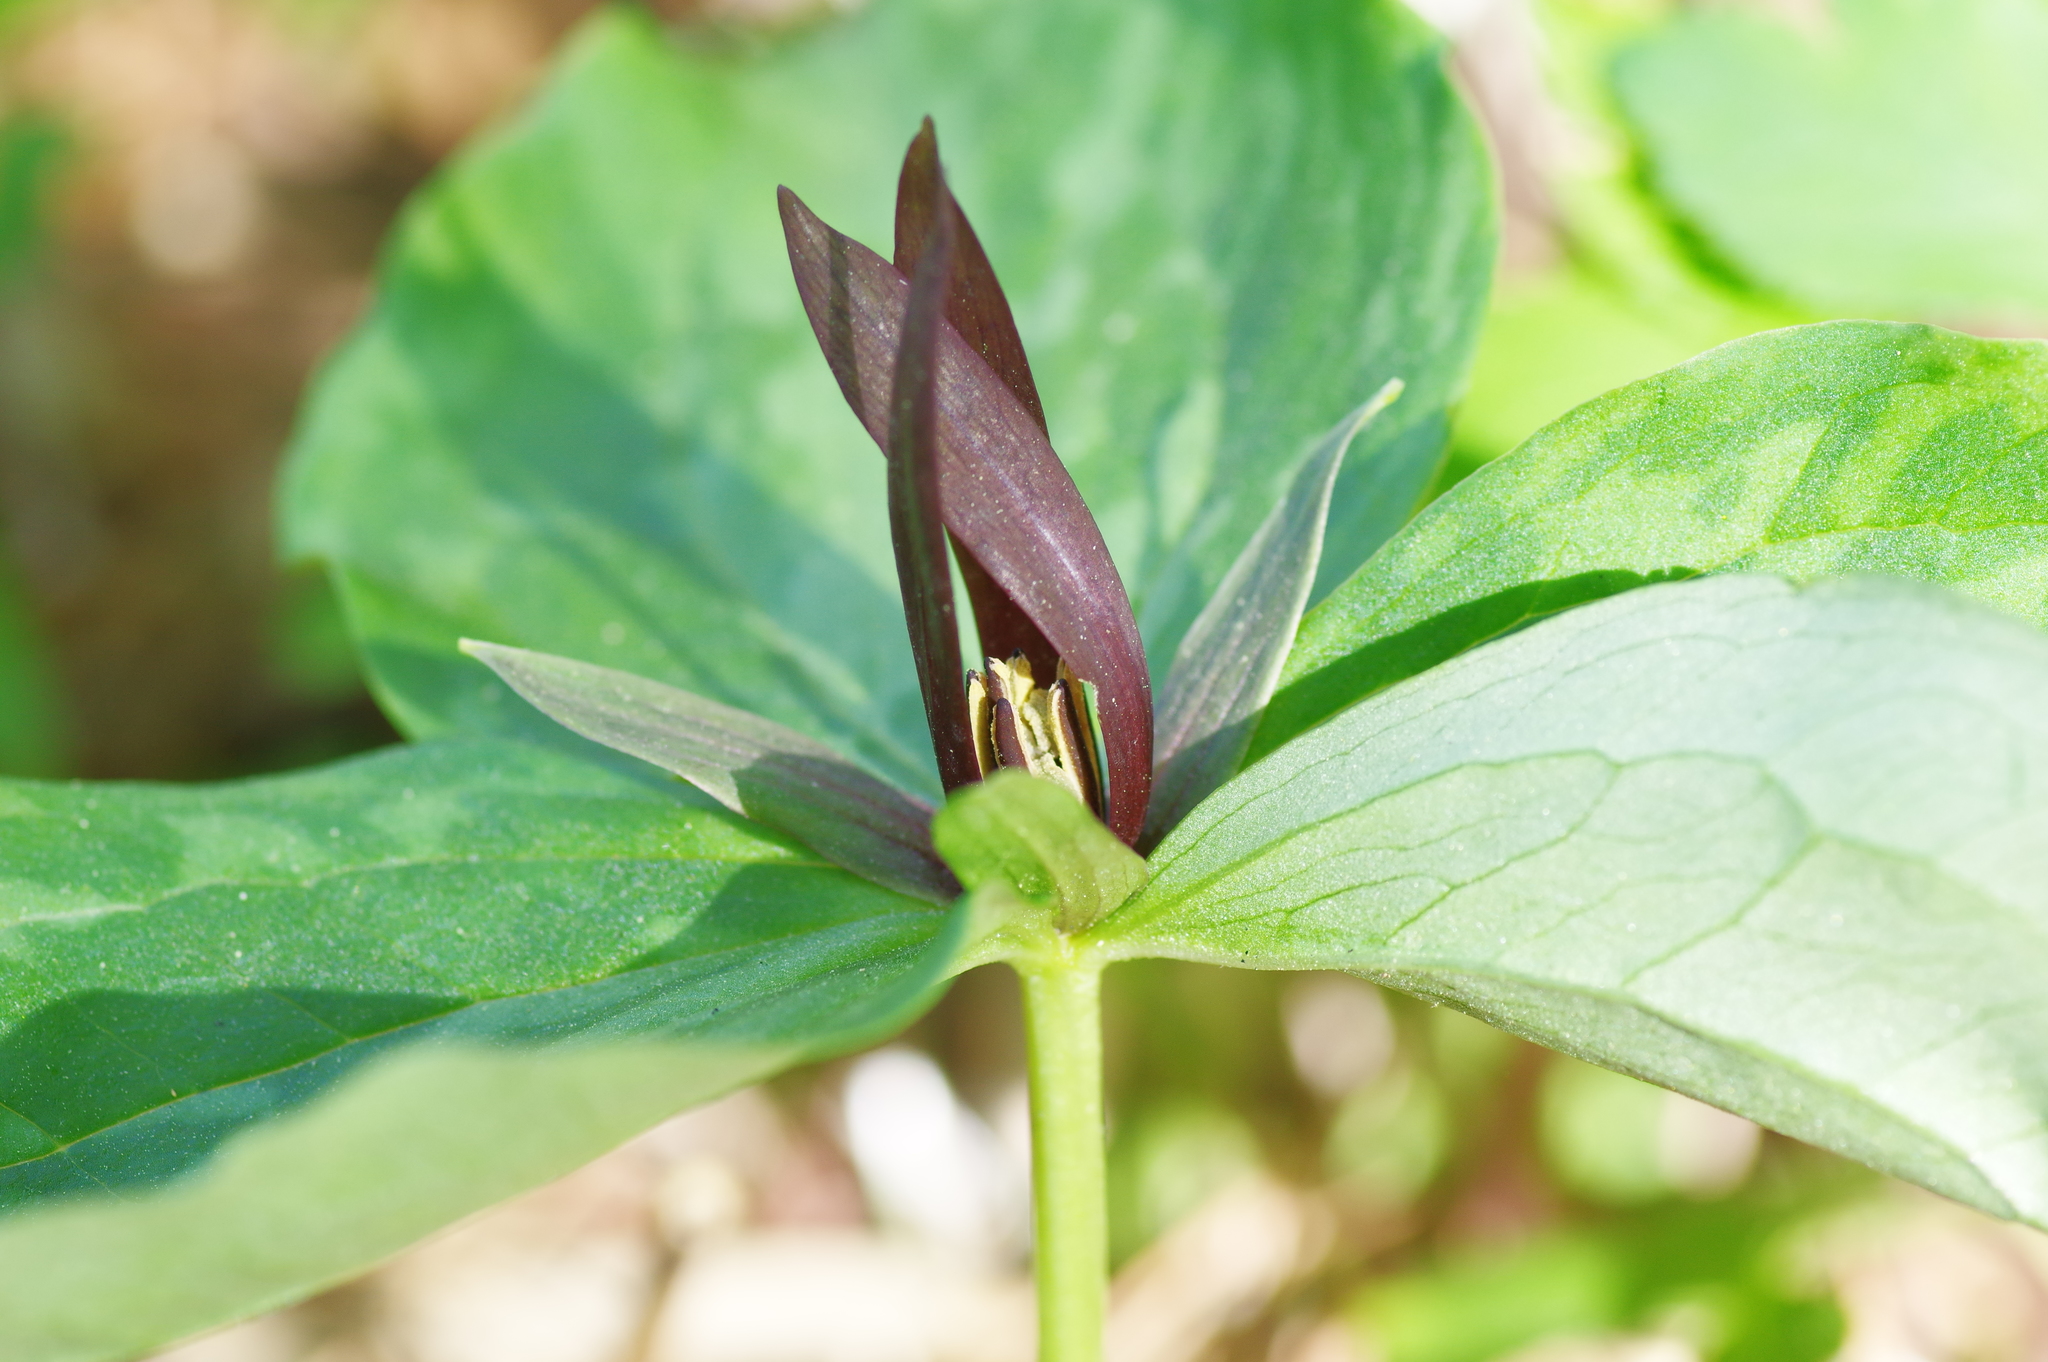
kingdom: Plantae
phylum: Tracheophyta
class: Liliopsida
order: Liliales
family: Melanthiaceae
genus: Trillium
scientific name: Trillium gracile
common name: Graceful trillium
